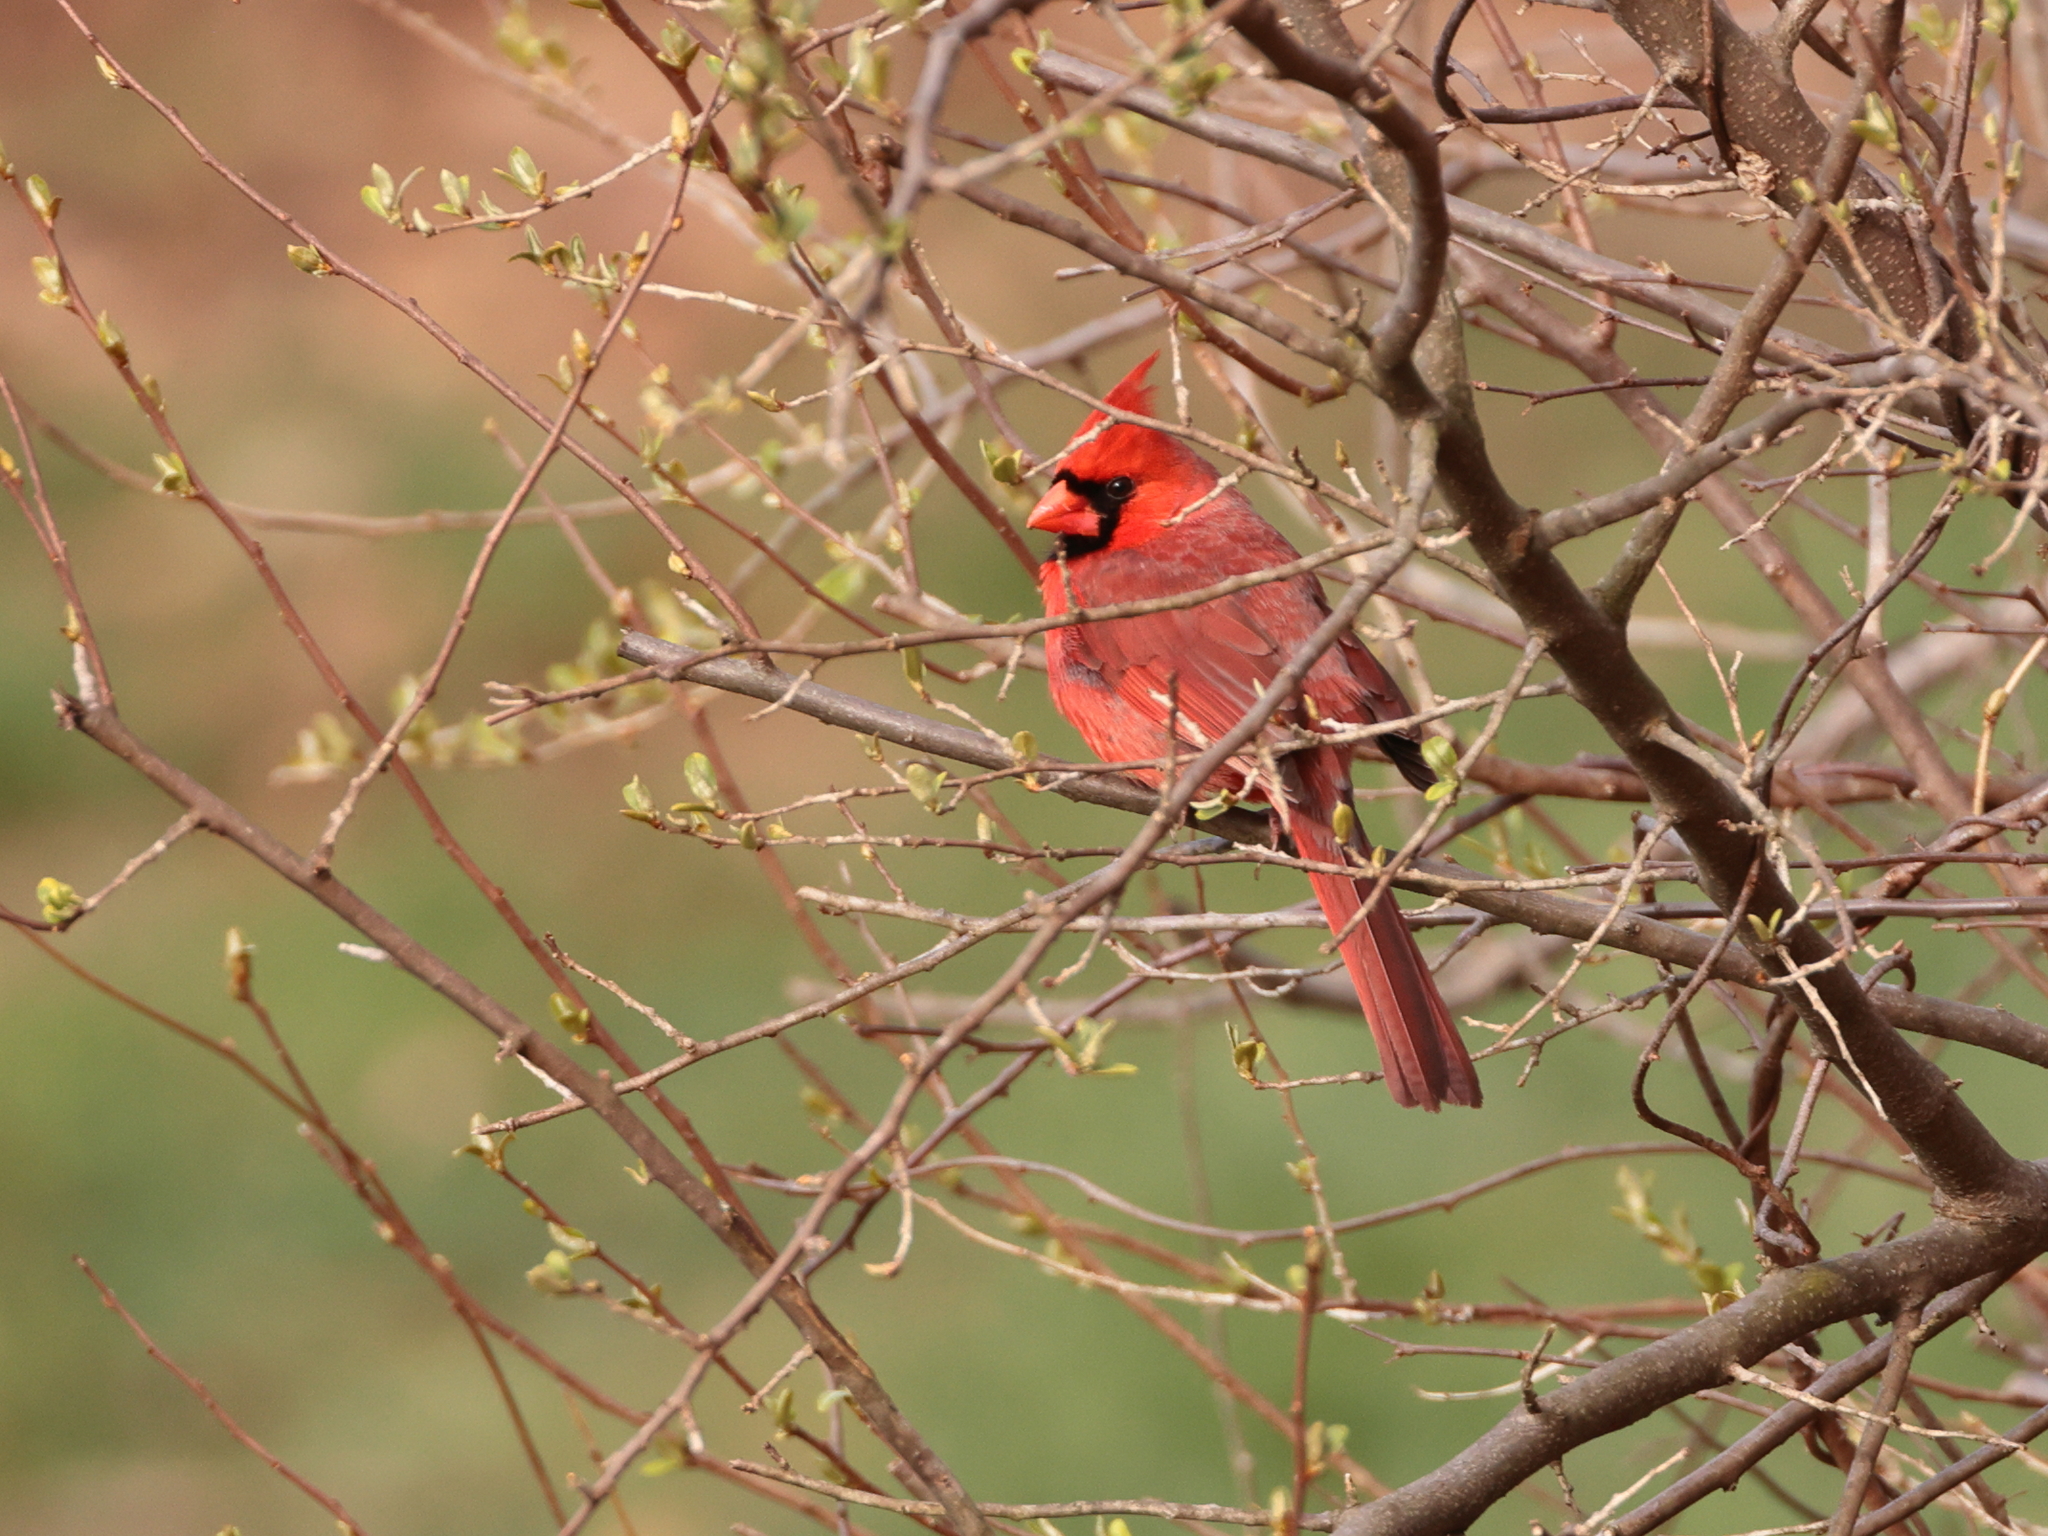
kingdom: Animalia
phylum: Chordata
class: Aves
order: Passeriformes
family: Cardinalidae
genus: Cardinalis
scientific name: Cardinalis cardinalis
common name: Northern cardinal
